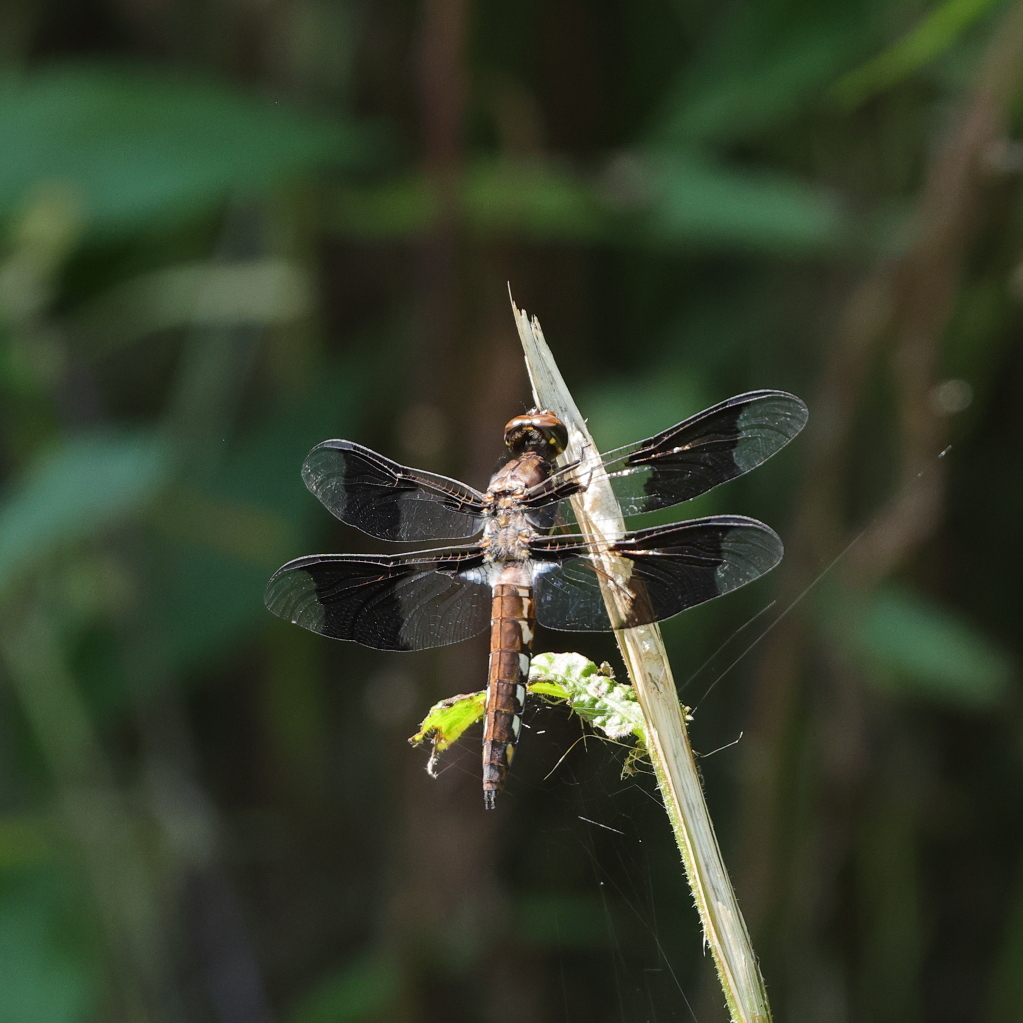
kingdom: Animalia
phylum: Arthropoda
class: Insecta
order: Odonata
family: Libellulidae
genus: Plathemis
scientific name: Plathemis lydia
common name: Common whitetail
